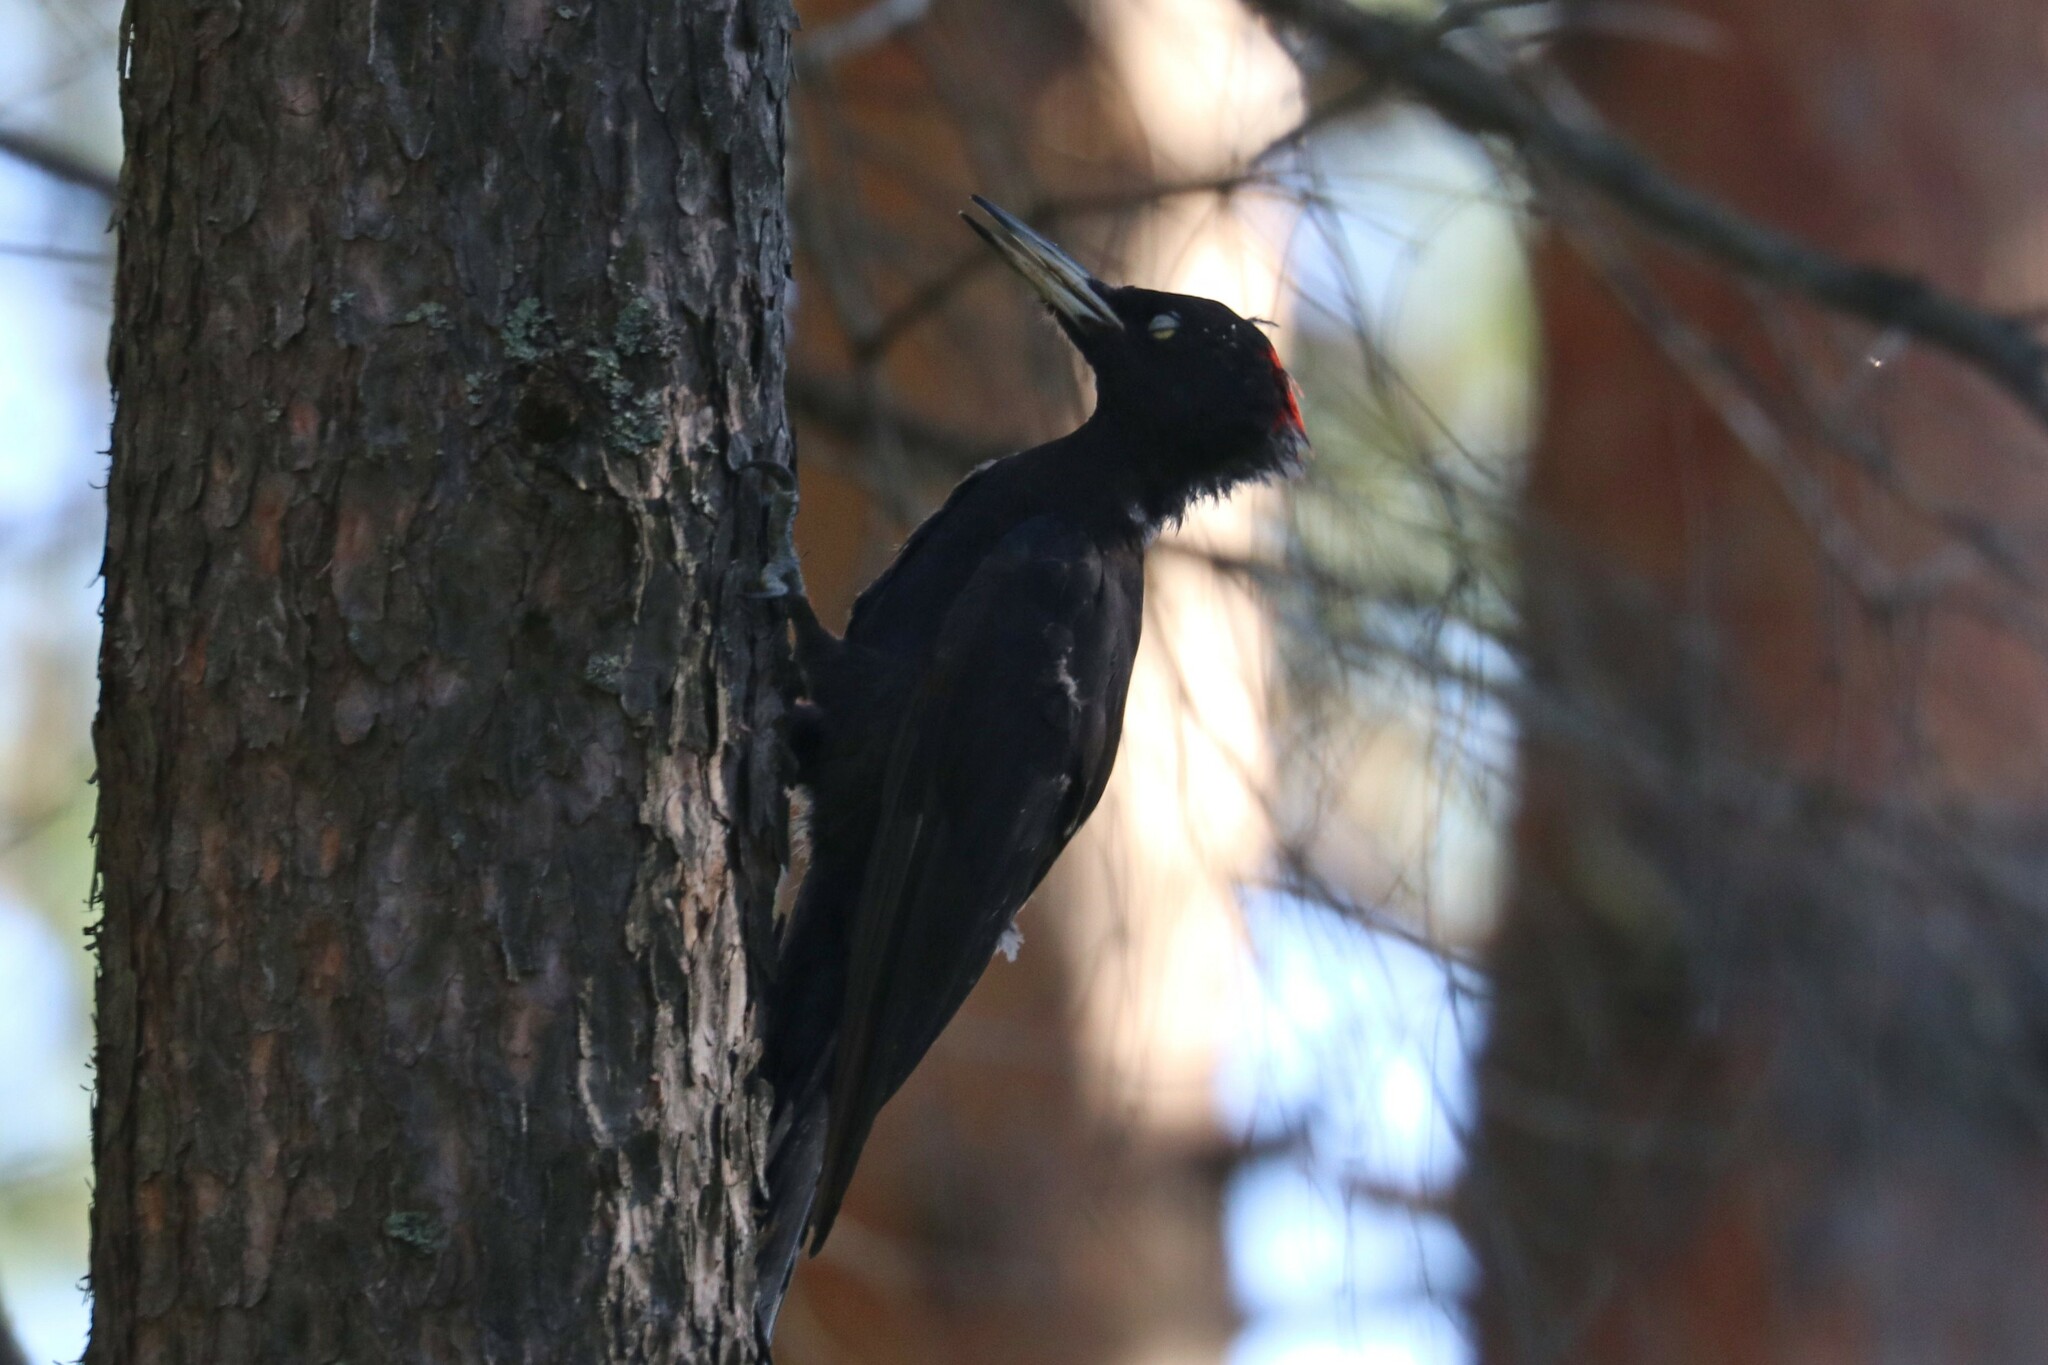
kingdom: Animalia
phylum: Chordata
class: Aves
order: Piciformes
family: Picidae
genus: Dryocopus
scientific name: Dryocopus martius
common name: Black woodpecker
